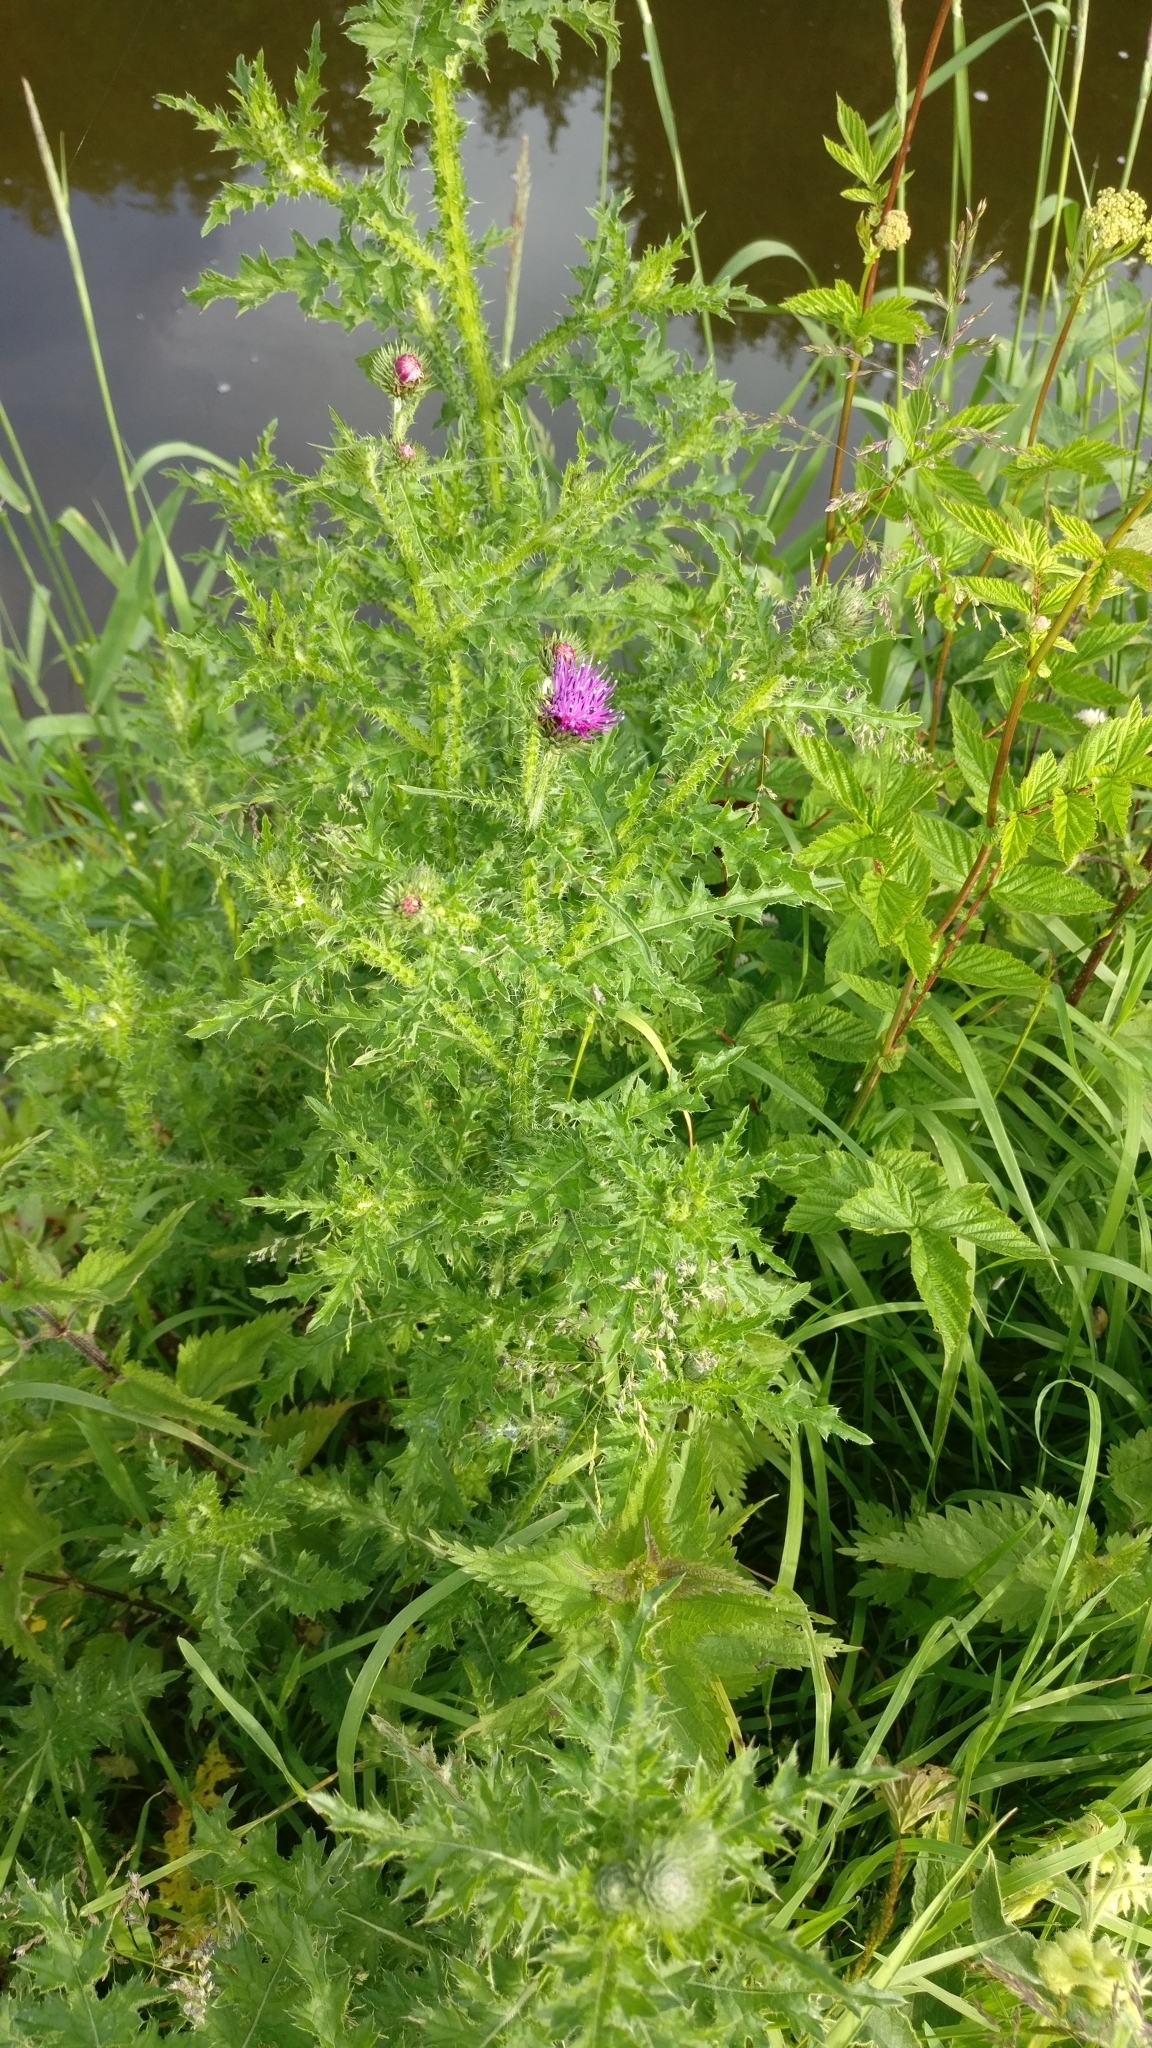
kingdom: Plantae
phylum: Tracheophyta
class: Magnoliopsida
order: Asterales
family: Asteraceae
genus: Cirsium
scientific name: Cirsium palustre
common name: Marsh thistle
